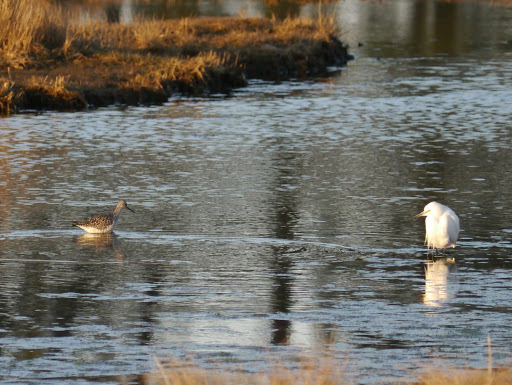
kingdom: Animalia
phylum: Chordata
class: Aves
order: Charadriiformes
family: Scolopacidae
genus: Tringa
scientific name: Tringa flavipes
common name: Lesser yellowlegs
